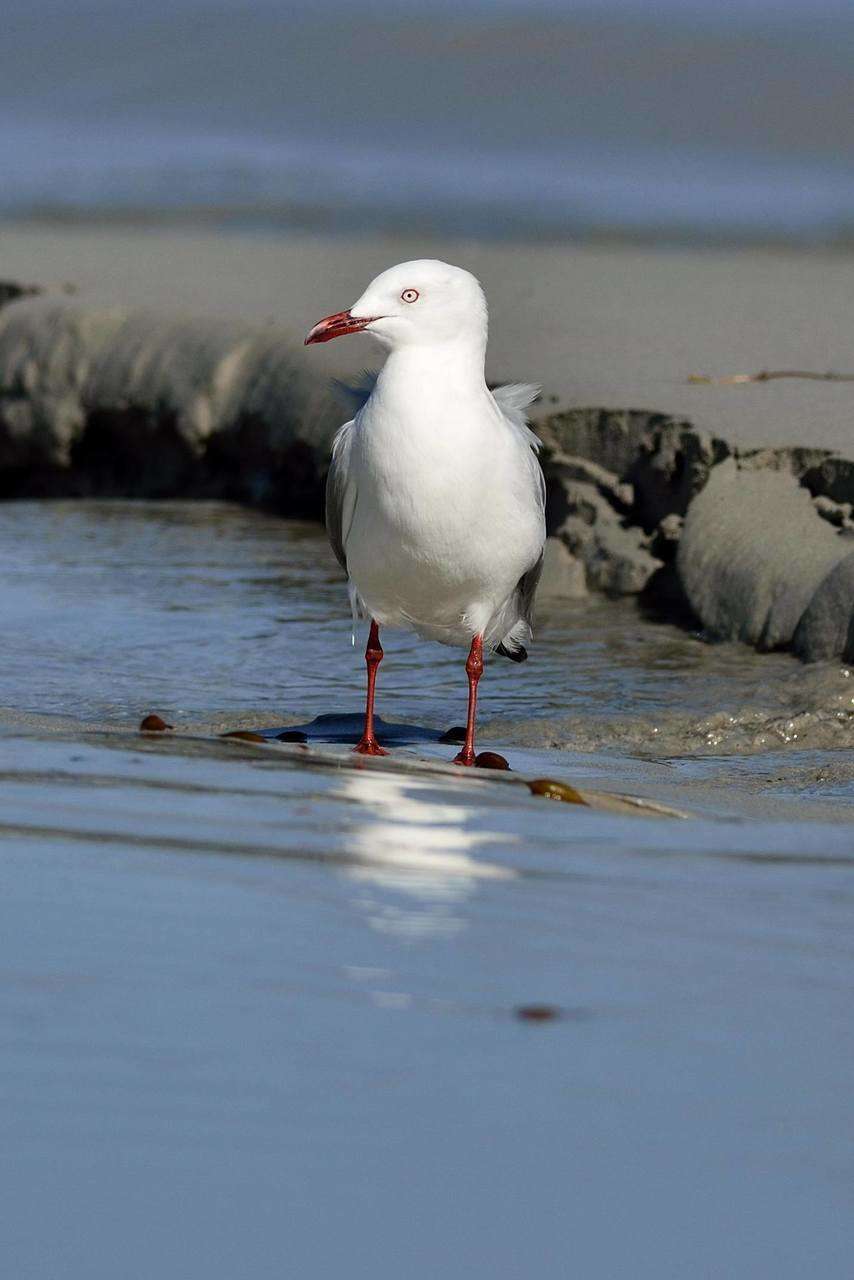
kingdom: Animalia
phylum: Chordata
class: Aves
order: Charadriiformes
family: Laridae
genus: Chroicocephalus
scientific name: Chroicocephalus novaehollandiae
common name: Silver gull
